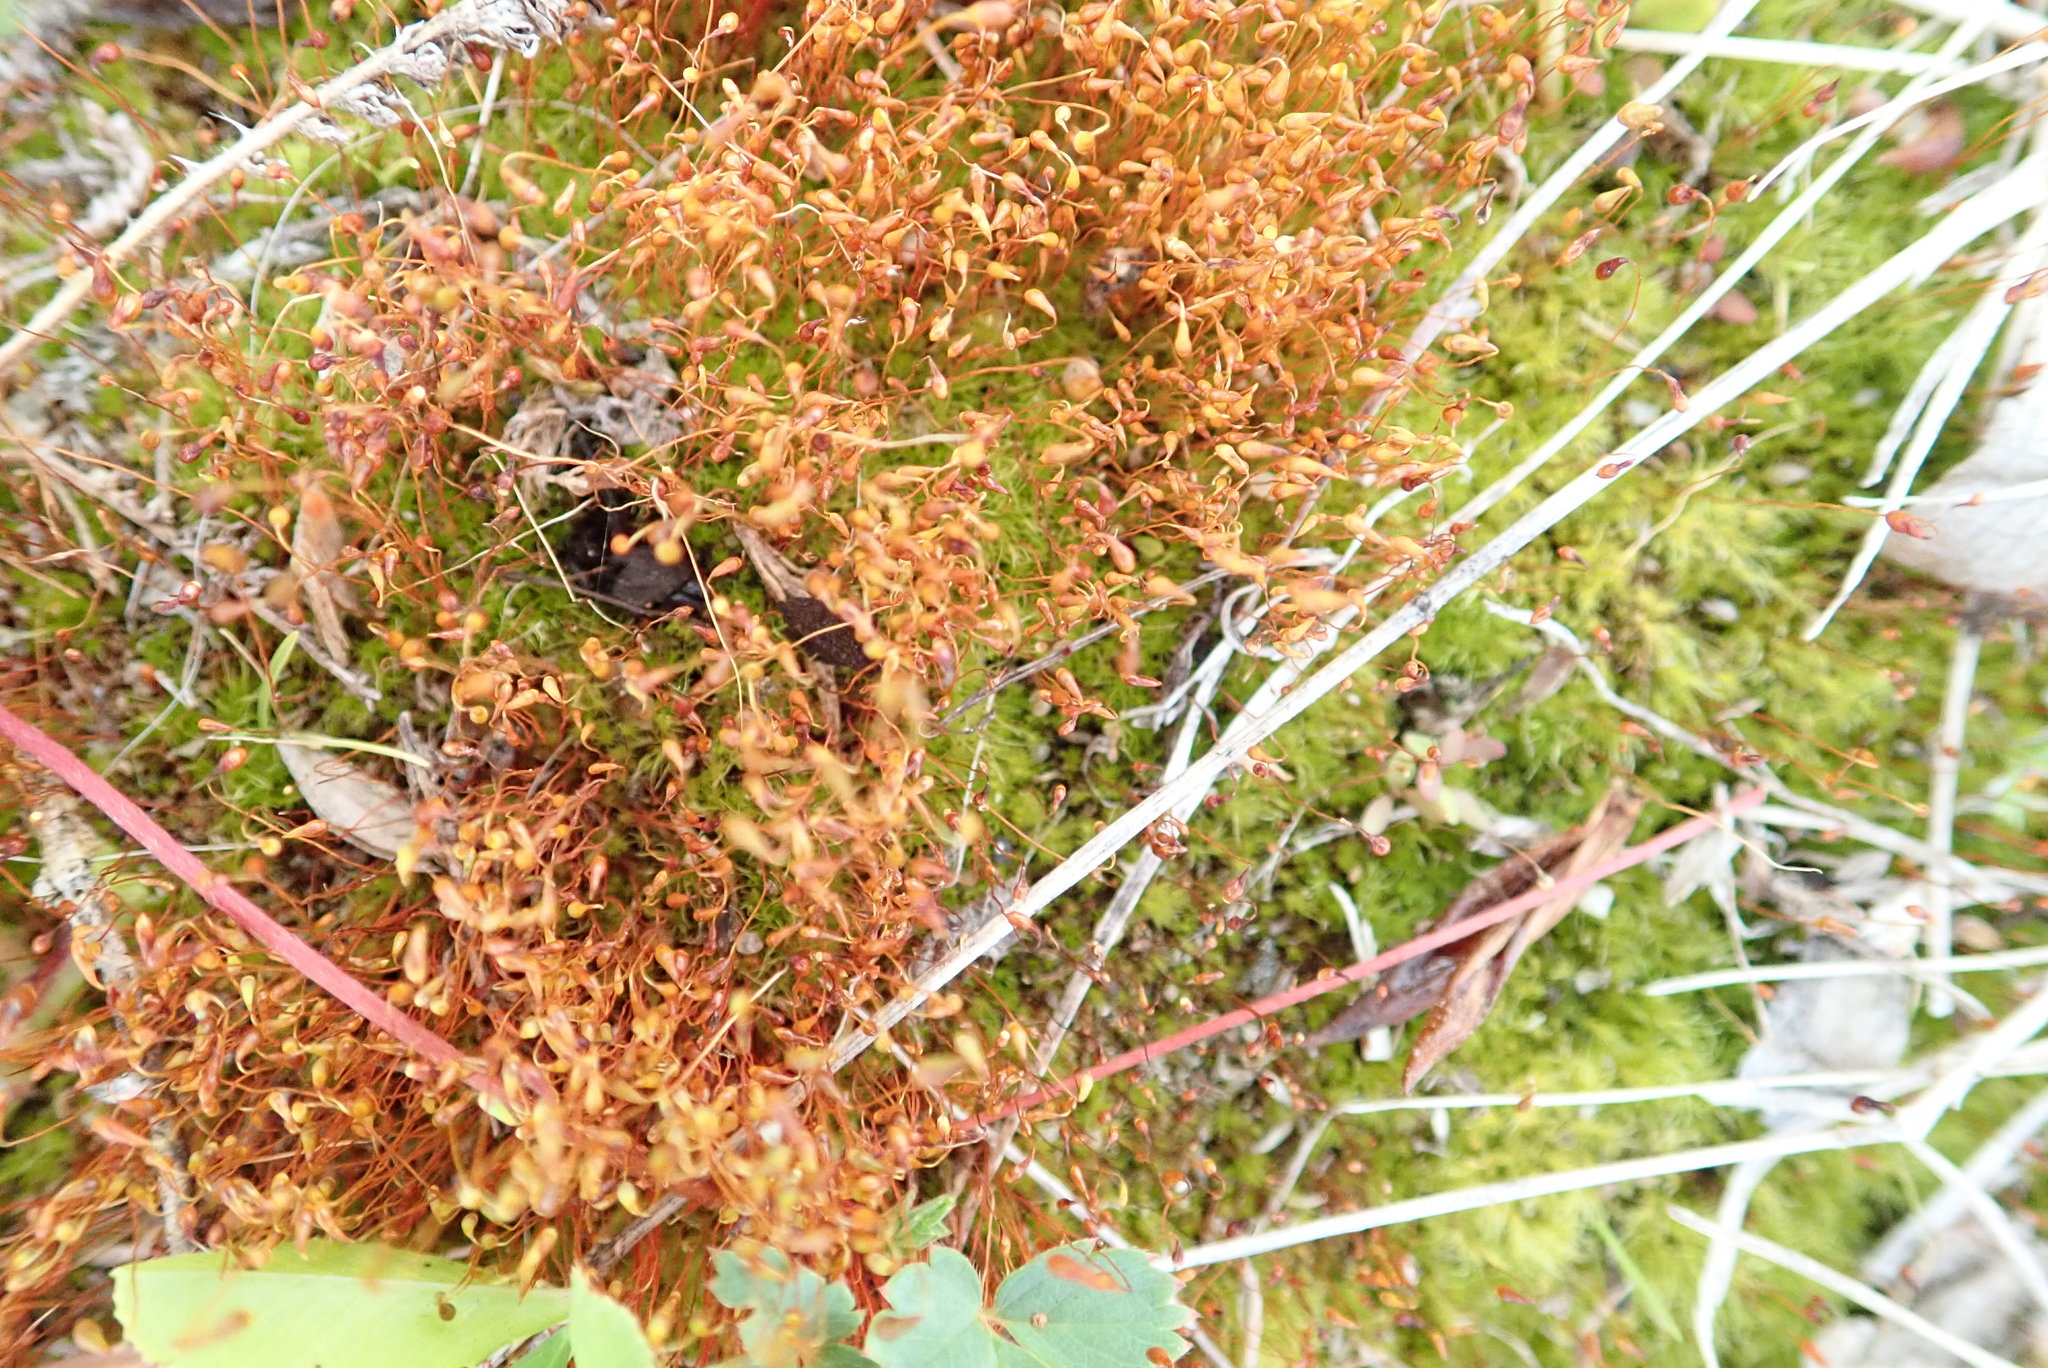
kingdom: Plantae
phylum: Bryophyta
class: Bryopsida
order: Dicranales
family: Ditrichaceae
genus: Ceratodon
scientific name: Ceratodon purpureus
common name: Redshank
